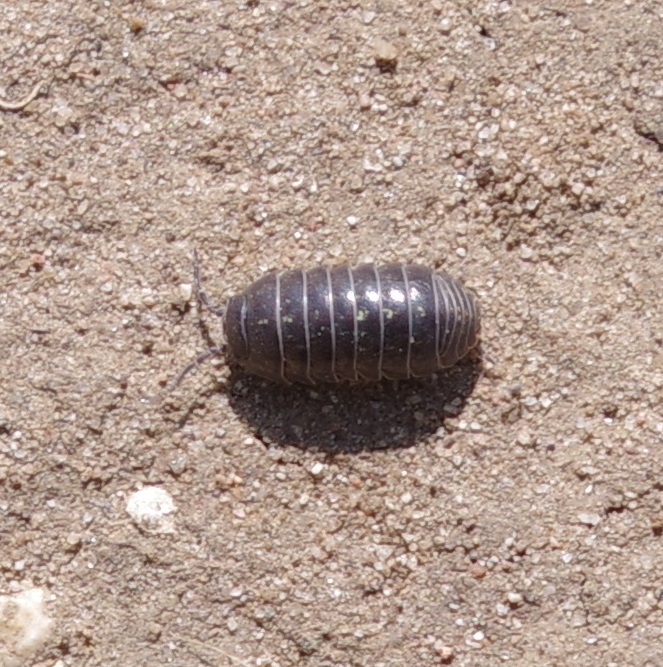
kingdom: Animalia
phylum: Arthropoda
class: Malacostraca
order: Isopoda
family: Armadillidiidae
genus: Armadillidium
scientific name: Armadillidium vulgare
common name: Common pill woodlouse
